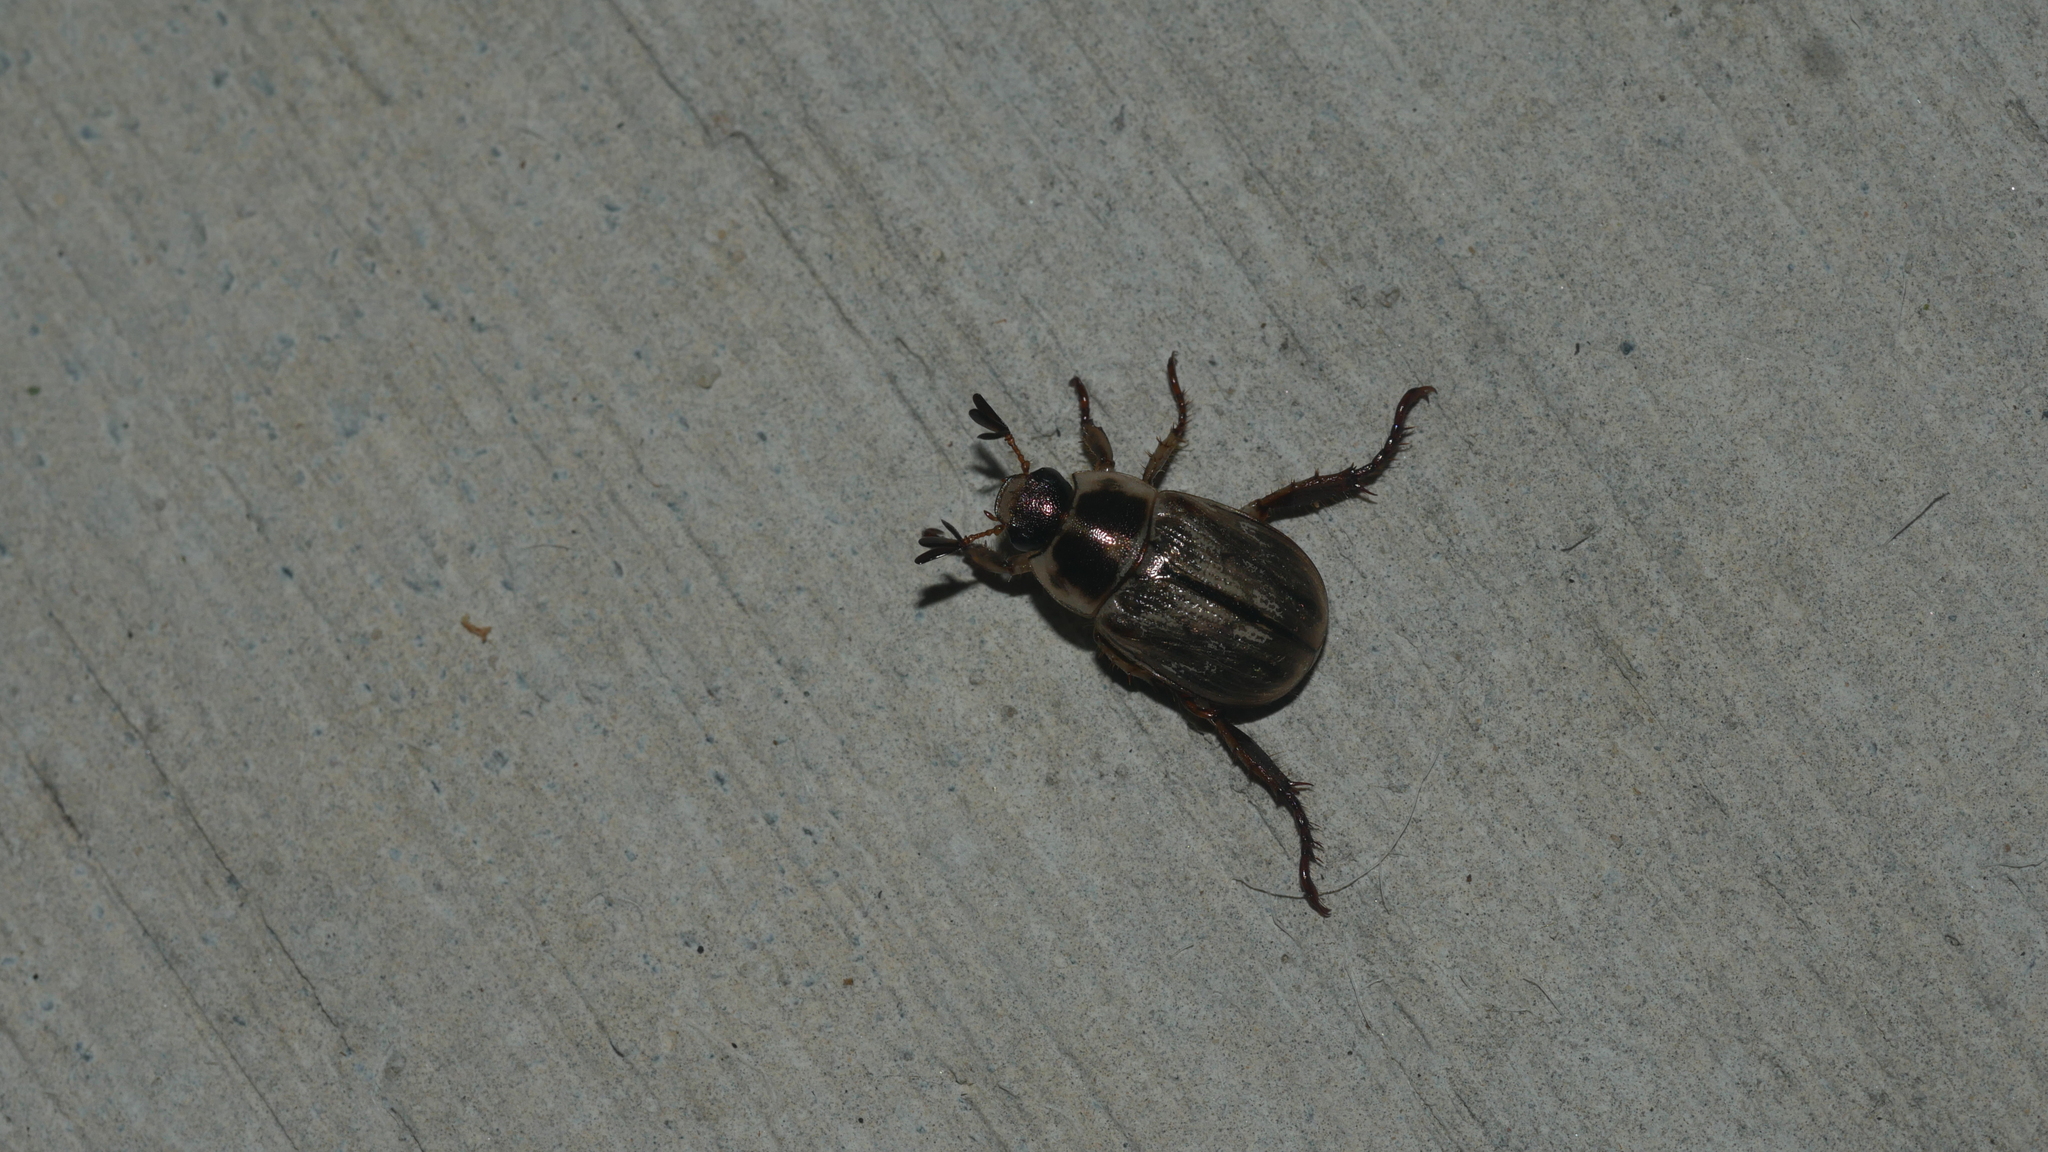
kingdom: Animalia
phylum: Arthropoda
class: Insecta
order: Coleoptera
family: Scarabaeidae
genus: Exomala
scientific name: Exomala orientalis
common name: Oriental beetle
